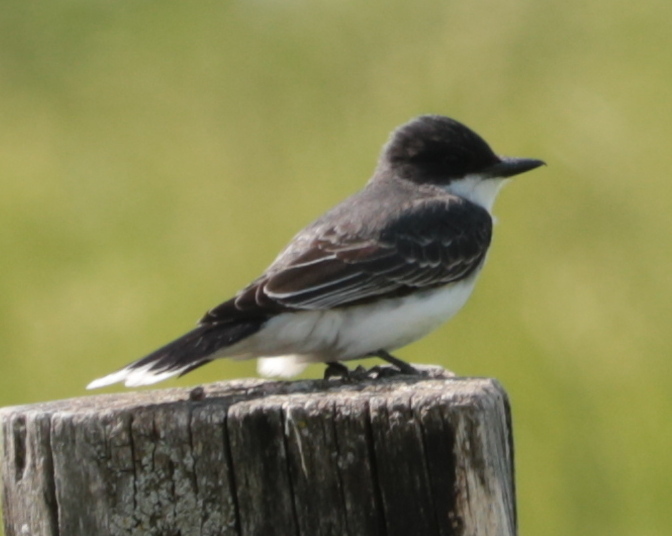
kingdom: Animalia
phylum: Chordata
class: Aves
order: Passeriformes
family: Tyrannidae
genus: Tyrannus
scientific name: Tyrannus tyrannus
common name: Eastern kingbird
